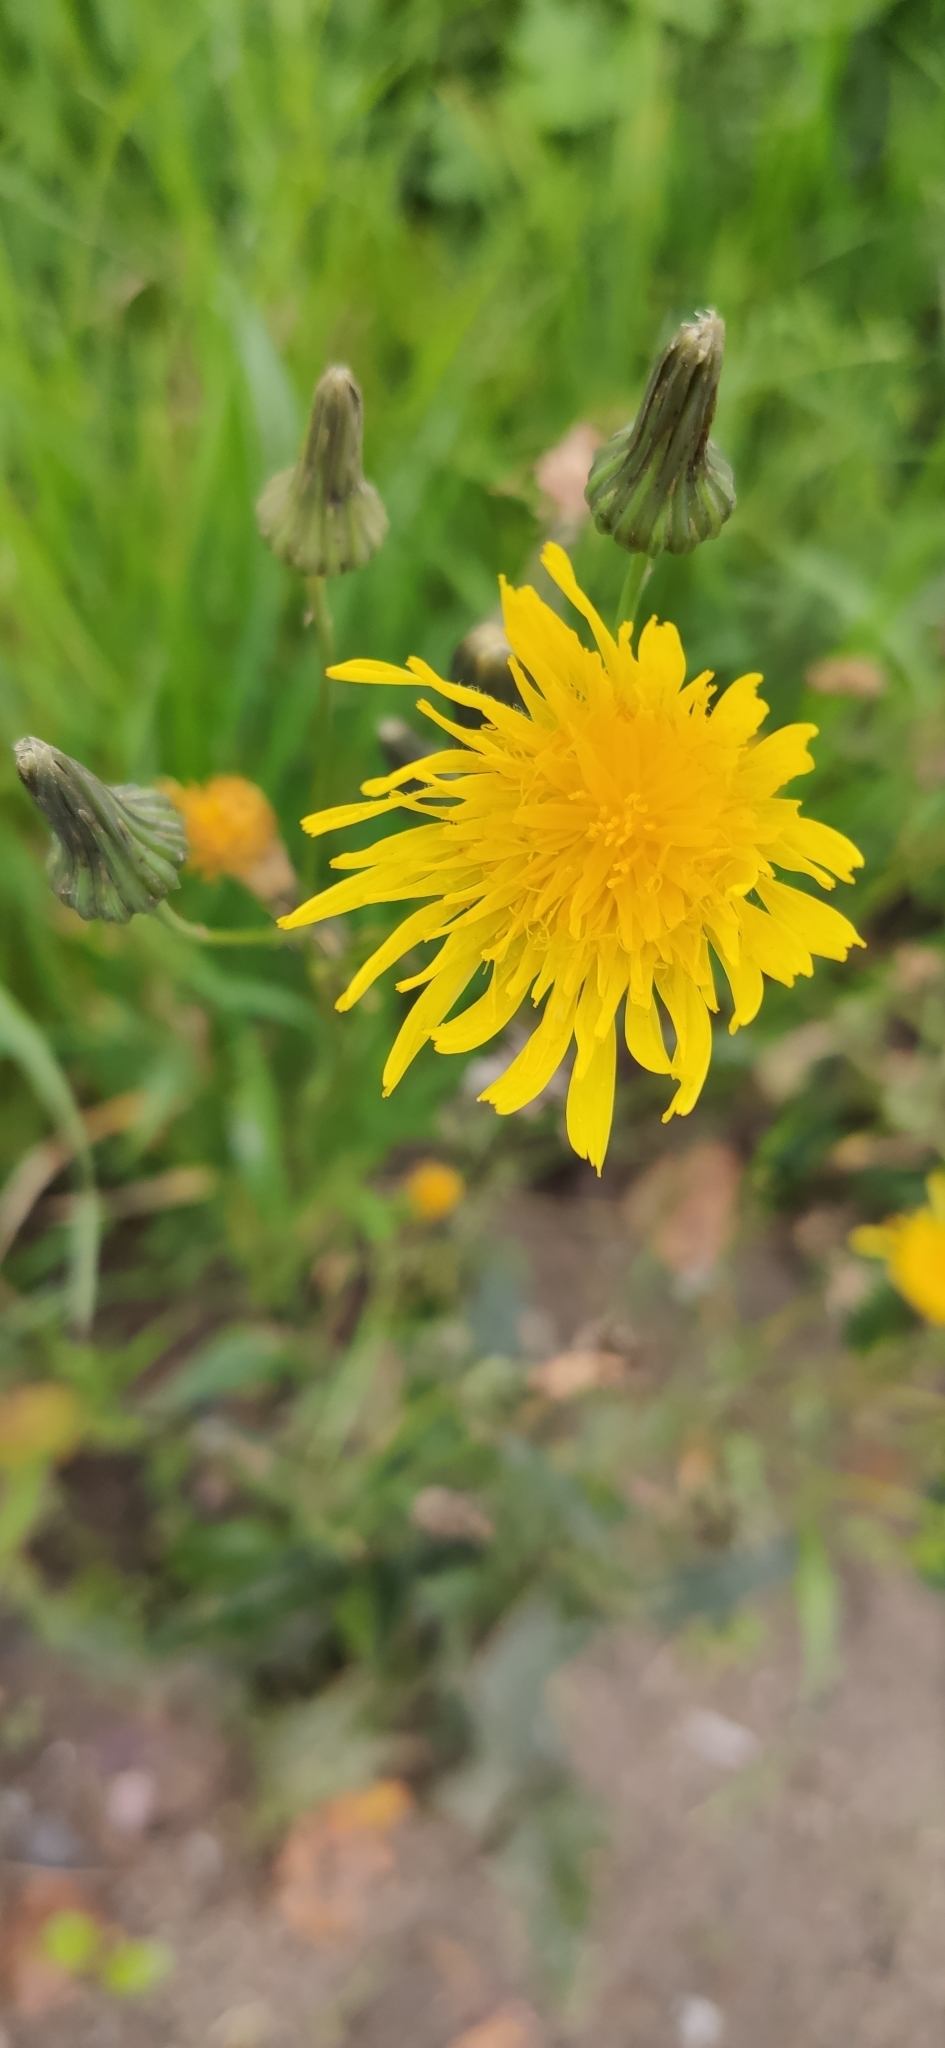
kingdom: Plantae
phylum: Tracheophyta
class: Magnoliopsida
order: Asterales
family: Asteraceae
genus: Sonchus
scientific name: Sonchus arvensis
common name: Perennial sow-thistle
